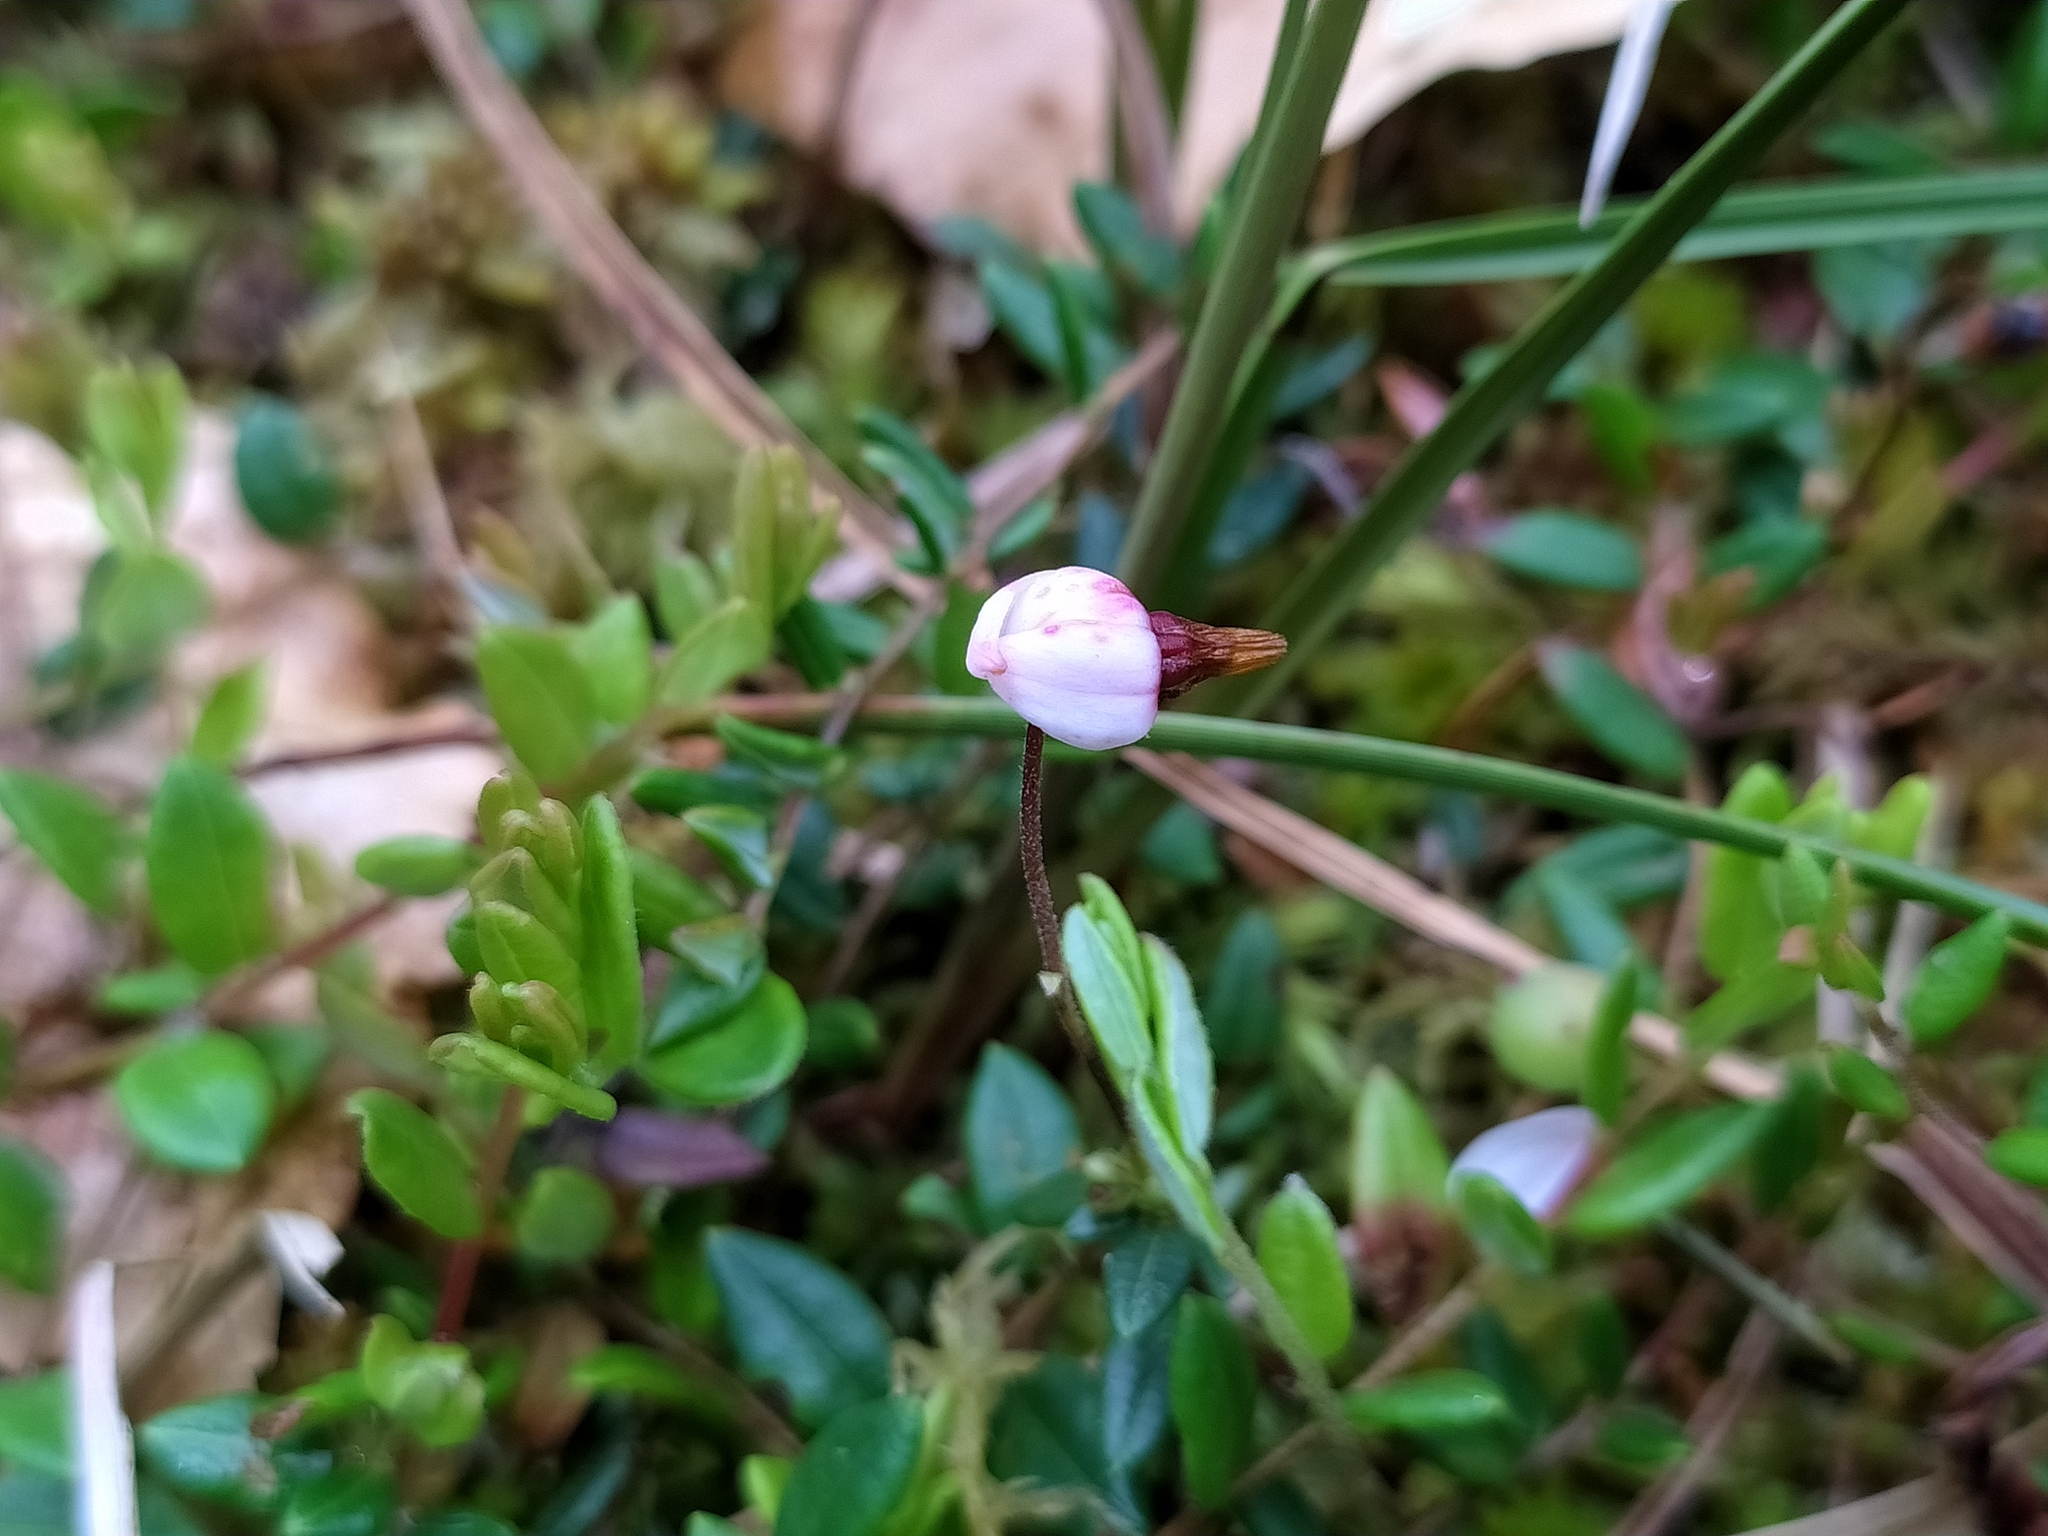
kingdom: Plantae
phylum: Tracheophyta
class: Magnoliopsida
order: Ericales
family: Ericaceae
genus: Vaccinium
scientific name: Vaccinium oxycoccos
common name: Cranberry
